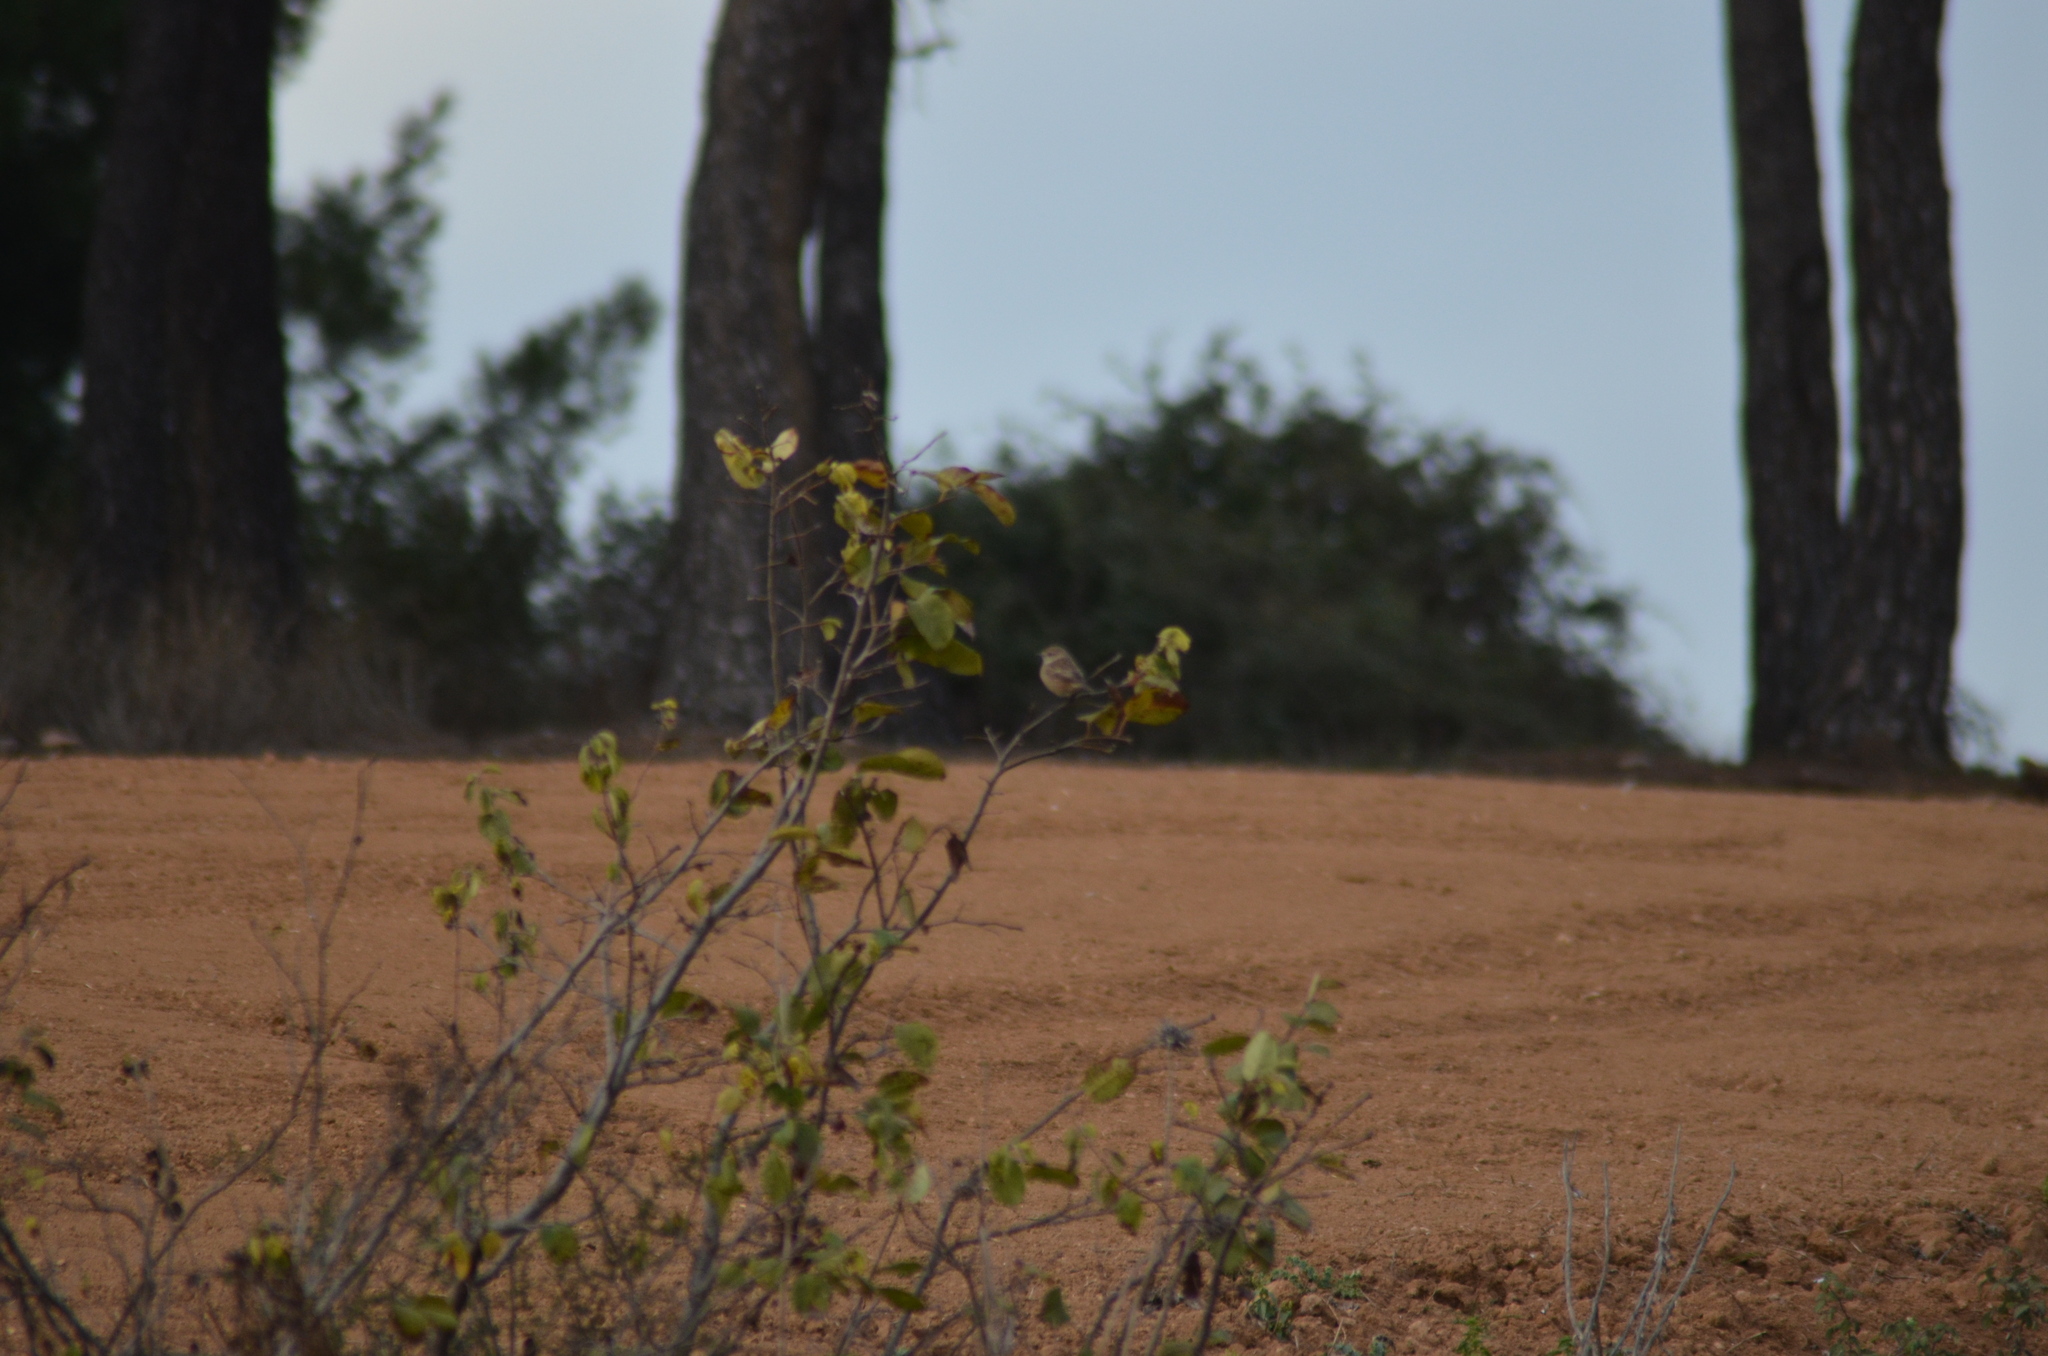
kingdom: Animalia
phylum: Chordata
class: Aves
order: Passeriformes
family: Muscicapidae
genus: Saxicola
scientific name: Saxicola rubicola
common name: European stonechat
